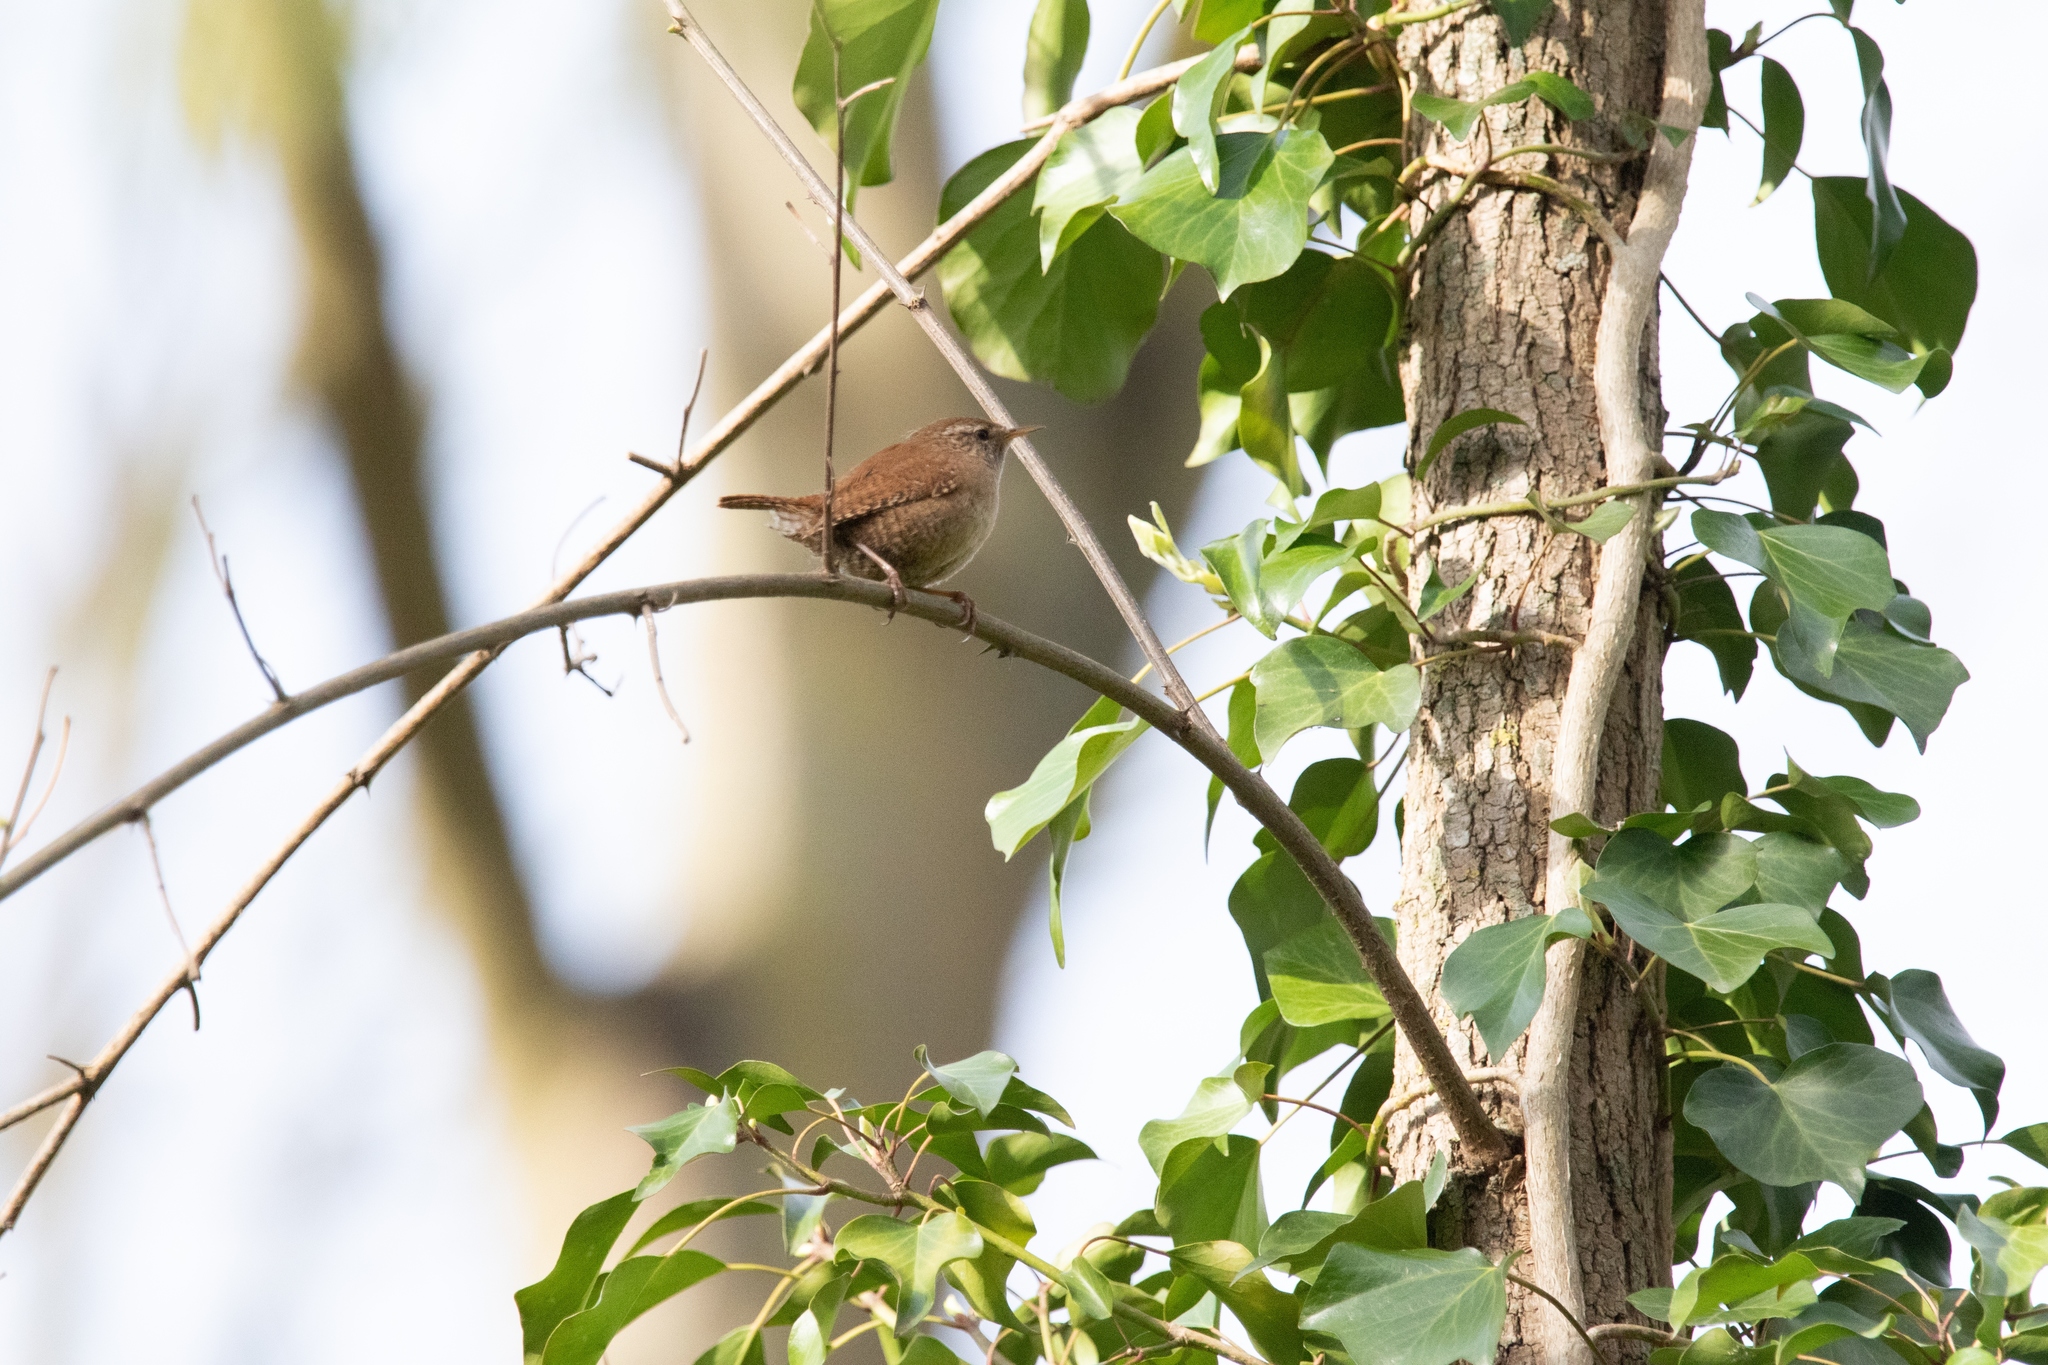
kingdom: Animalia
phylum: Chordata
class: Aves
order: Passeriformes
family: Troglodytidae
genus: Troglodytes
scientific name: Troglodytes troglodytes
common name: Eurasian wren
